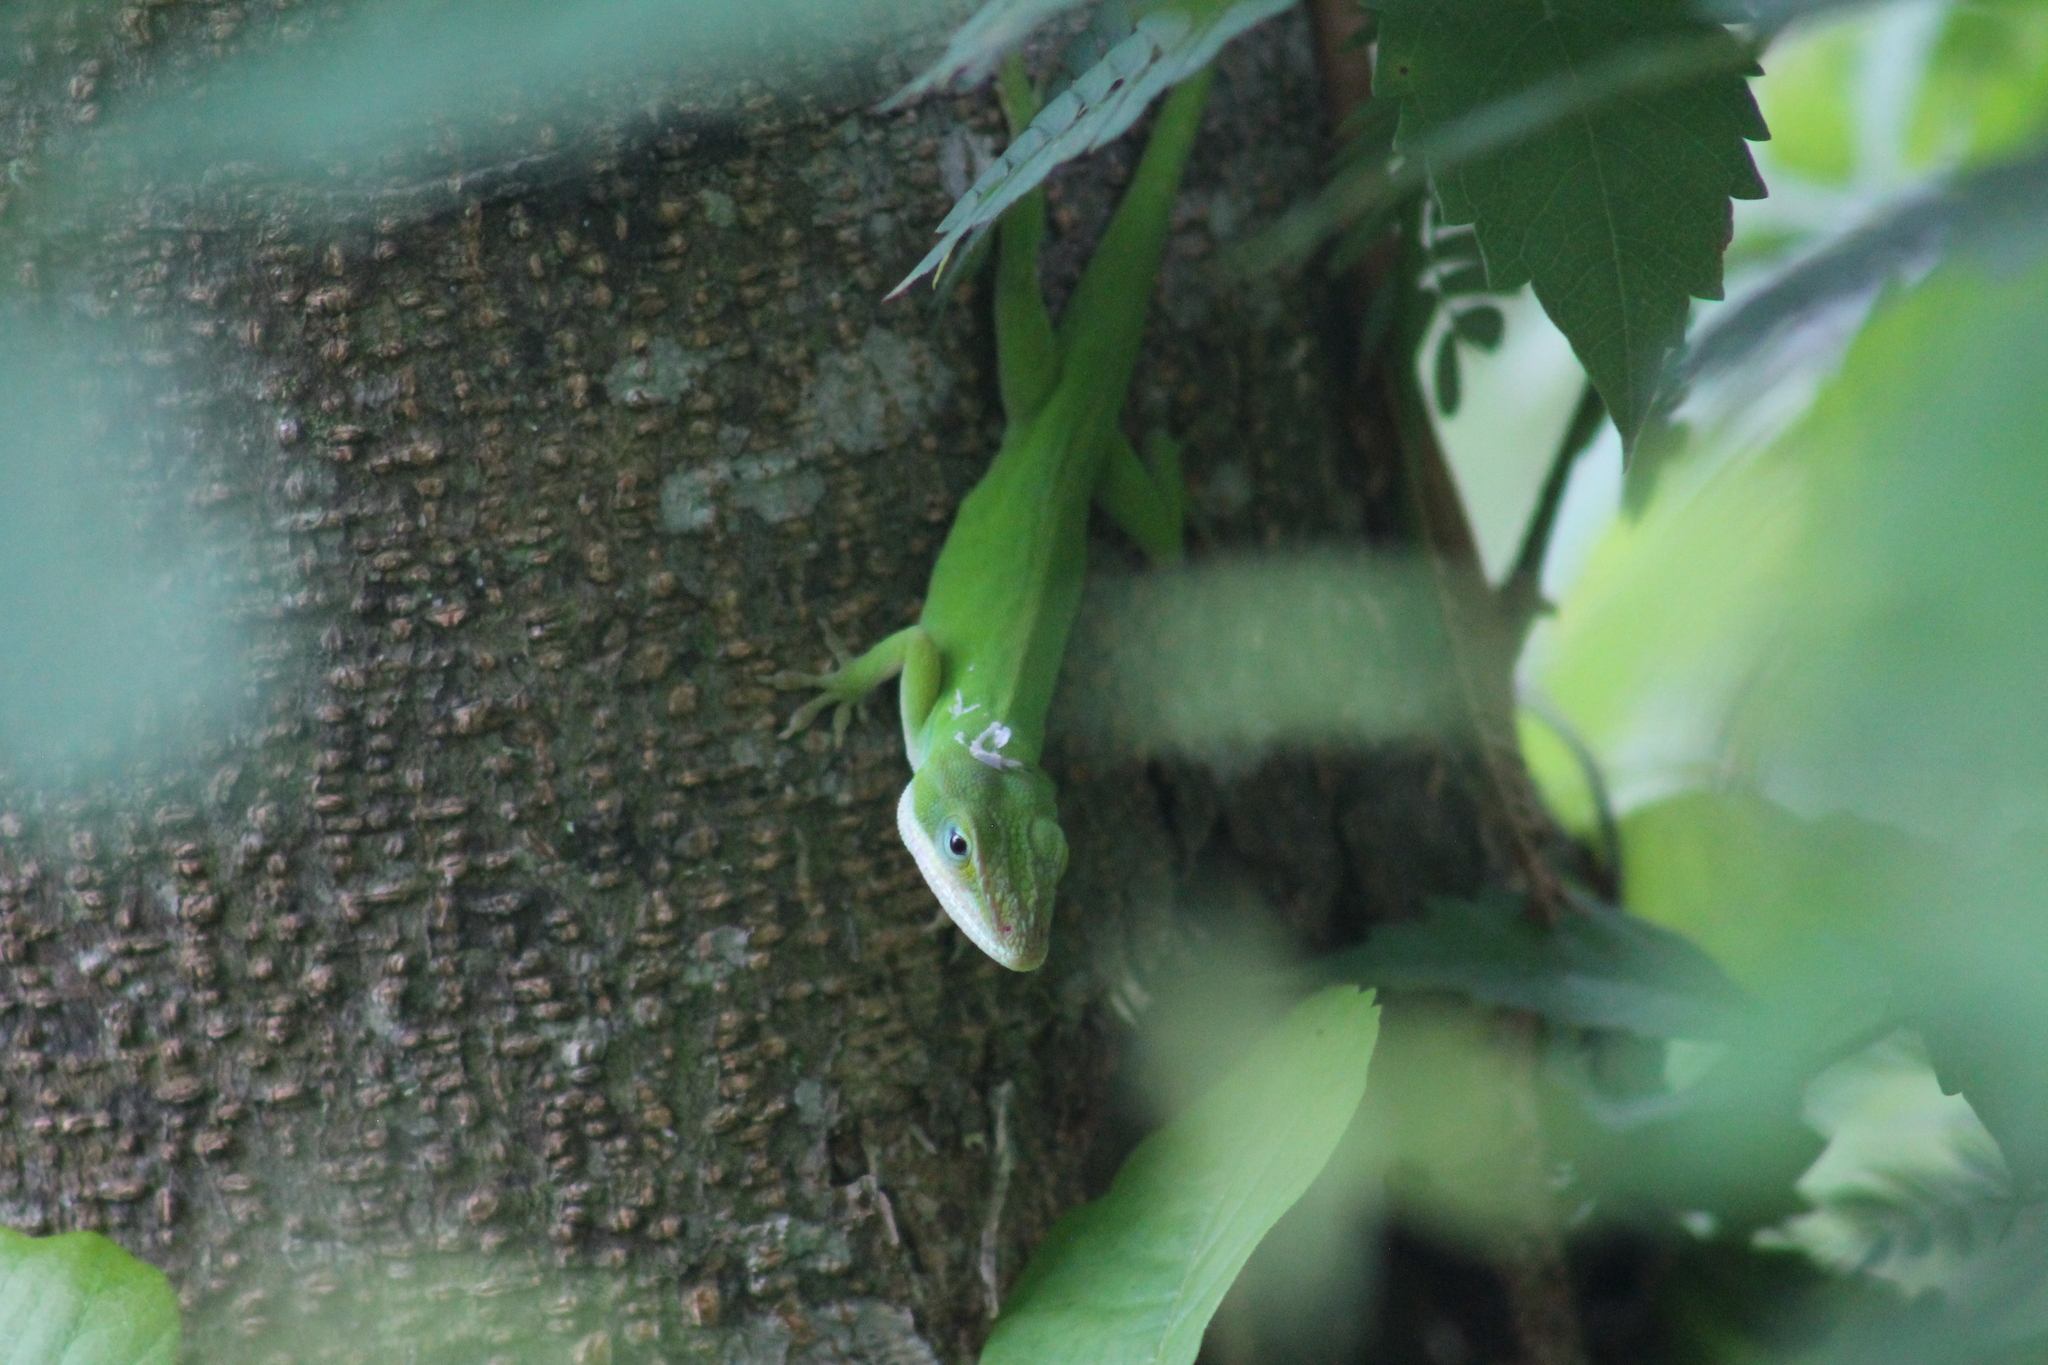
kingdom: Animalia
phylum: Chordata
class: Squamata
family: Dactyloidae
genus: Anolis
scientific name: Anolis carolinensis
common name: Green anole
